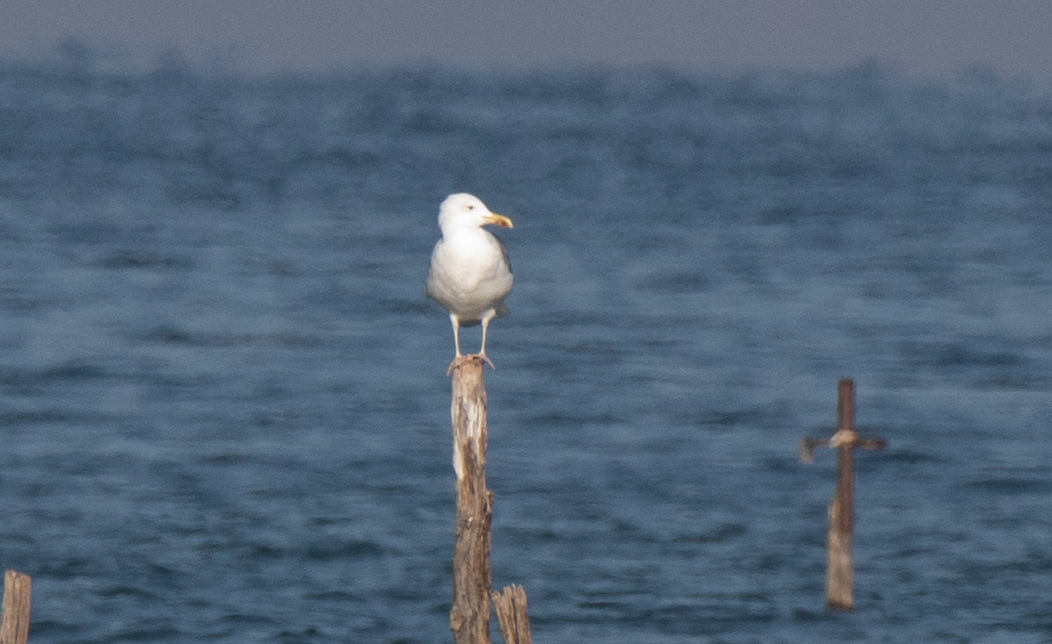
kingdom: Animalia
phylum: Chordata
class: Aves
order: Charadriiformes
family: Laridae
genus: Larus
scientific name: Larus cachinnans
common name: Caspian gull
